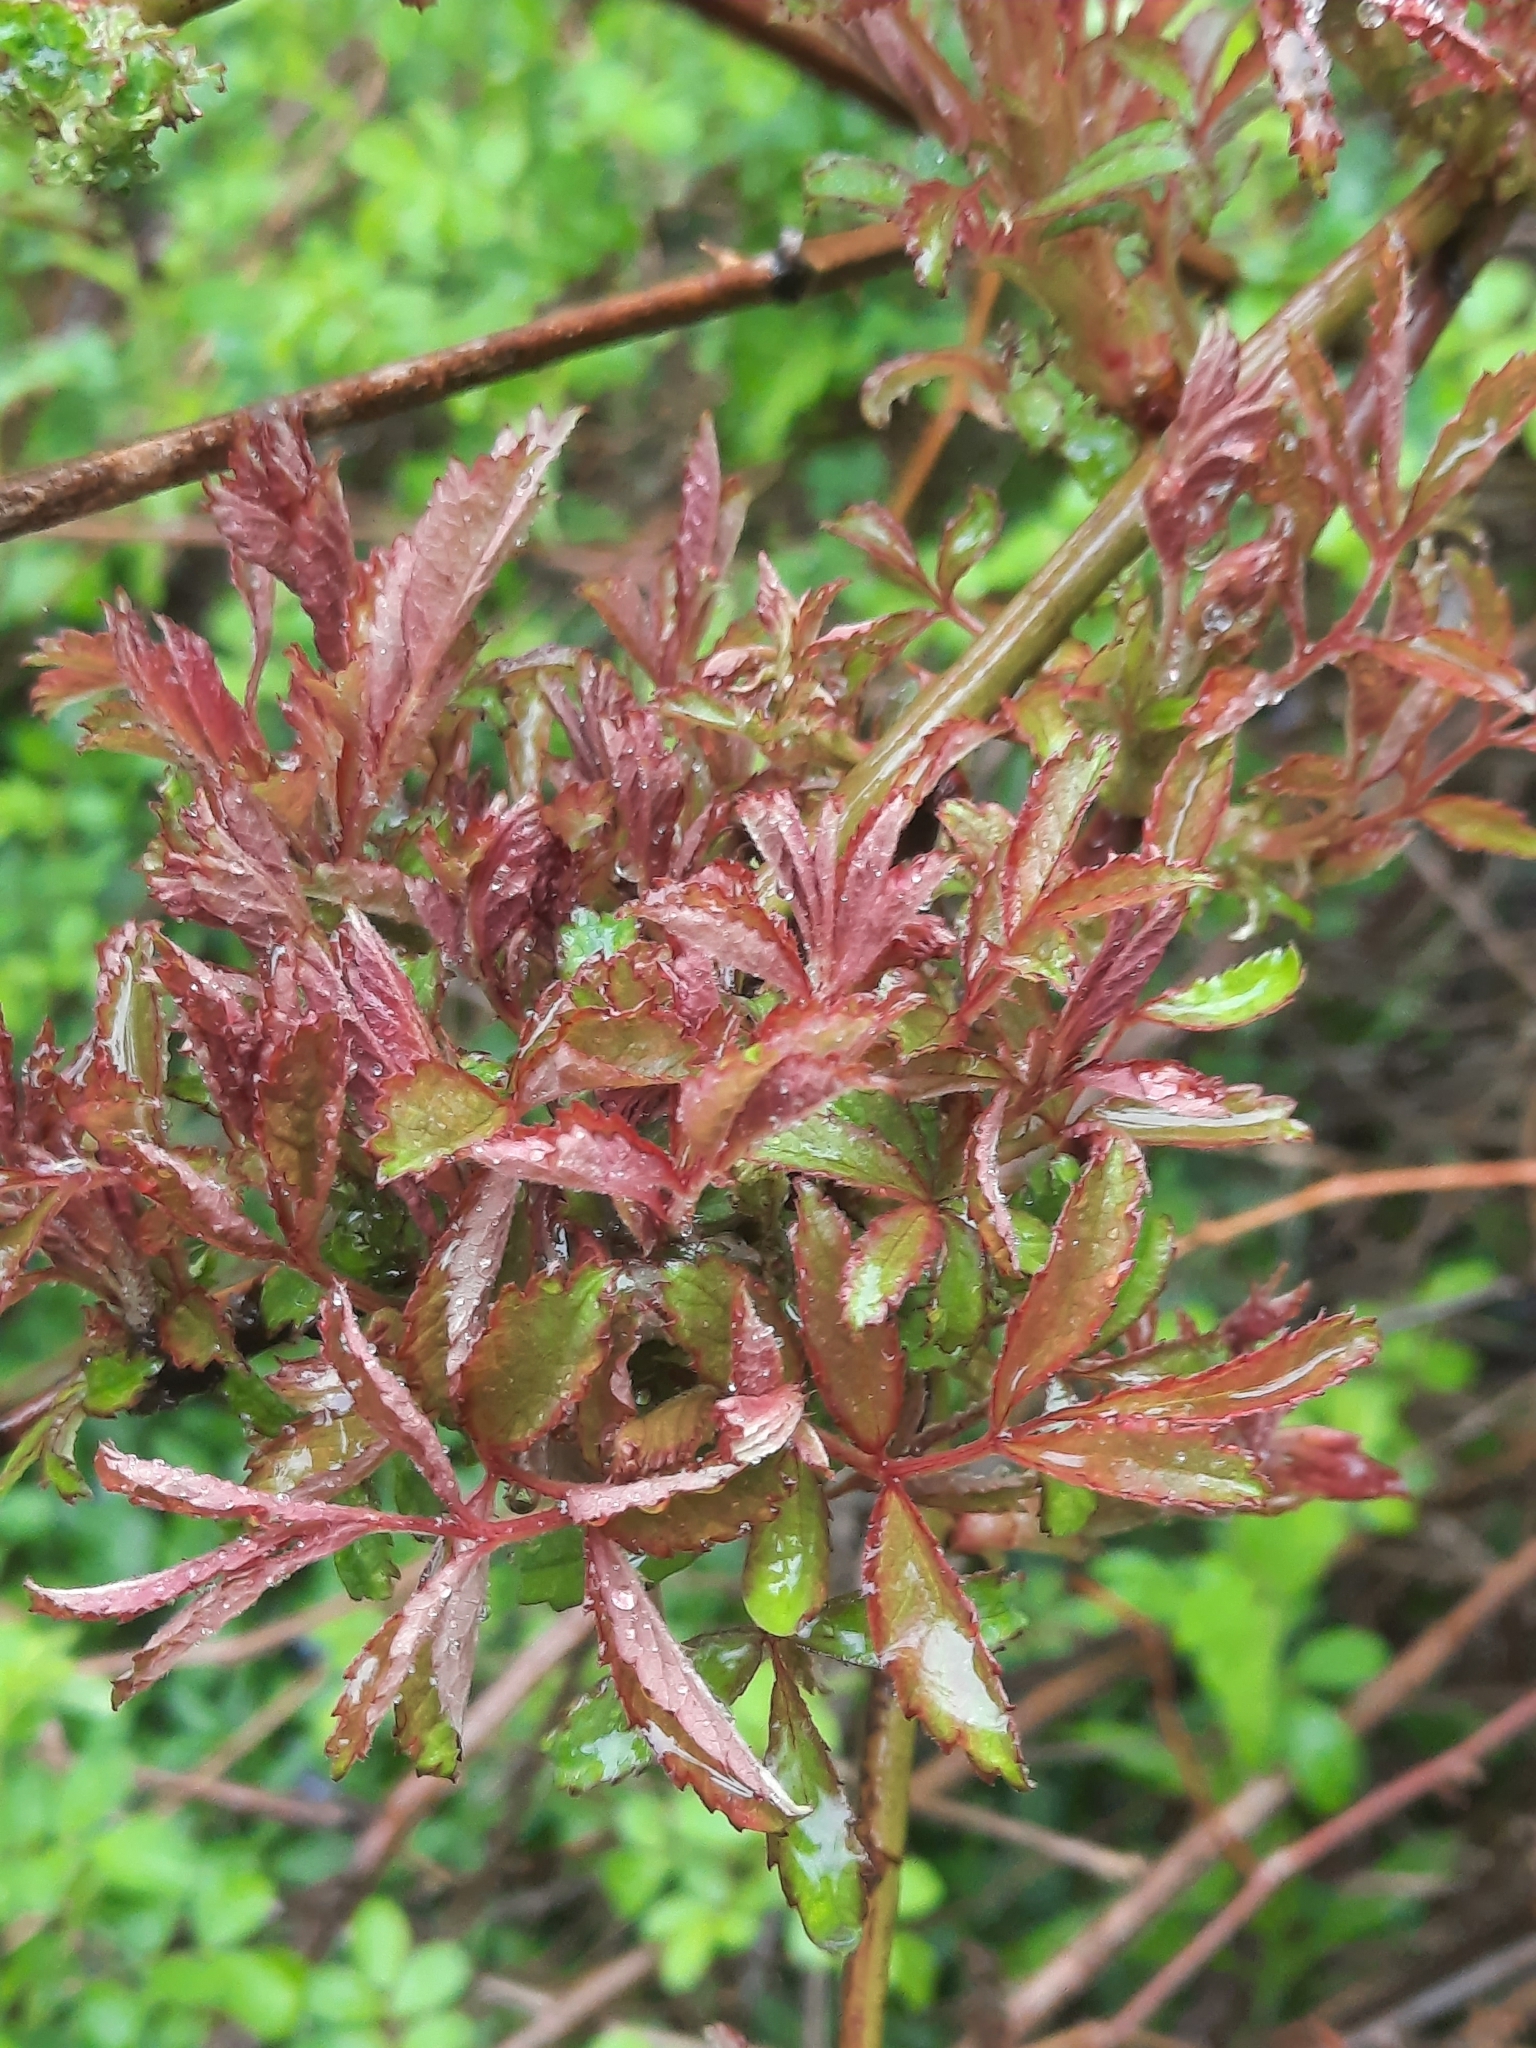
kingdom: Viruses
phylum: Negarnaviricota
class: Ellioviricetes
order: Bunyavirales
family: Fimoviridae
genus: Emaravirus
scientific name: Emaravirus rosae
